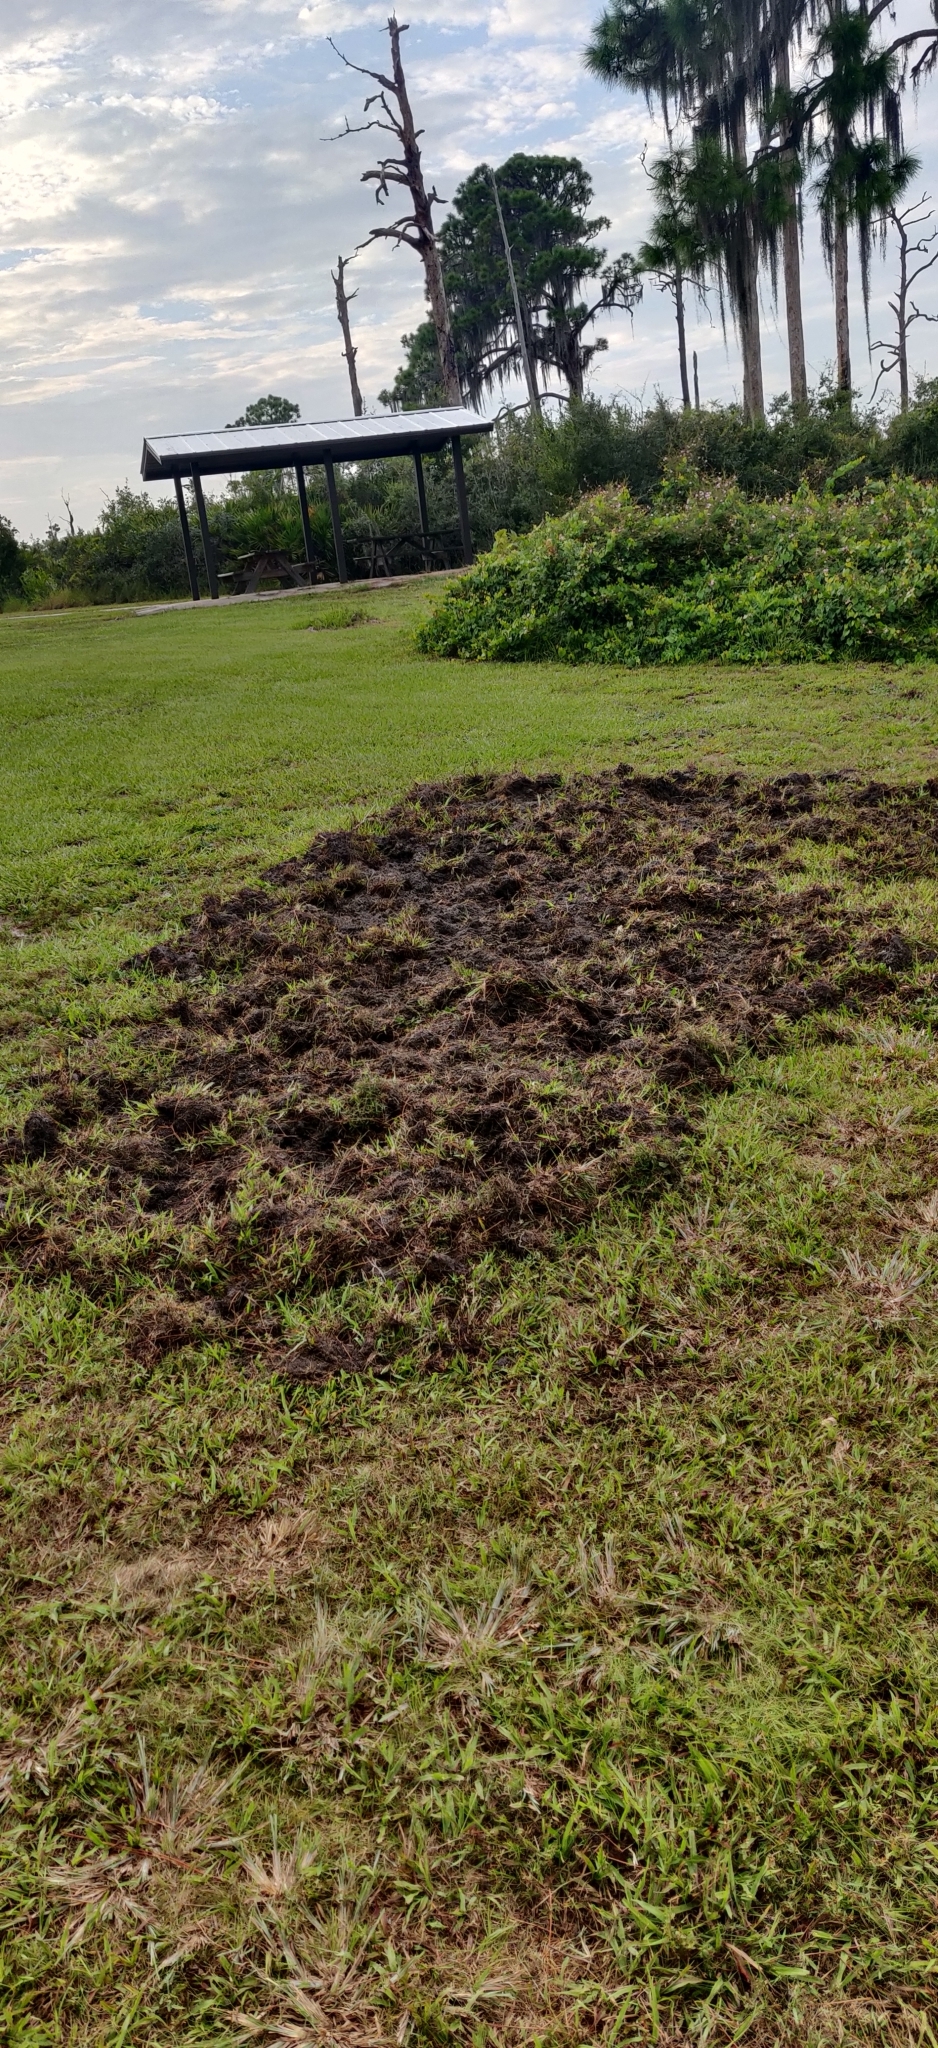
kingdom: Animalia
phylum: Chordata
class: Mammalia
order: Artiodactyla
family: Suidae
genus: Sus
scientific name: Sus scrofa
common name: Wild boar
